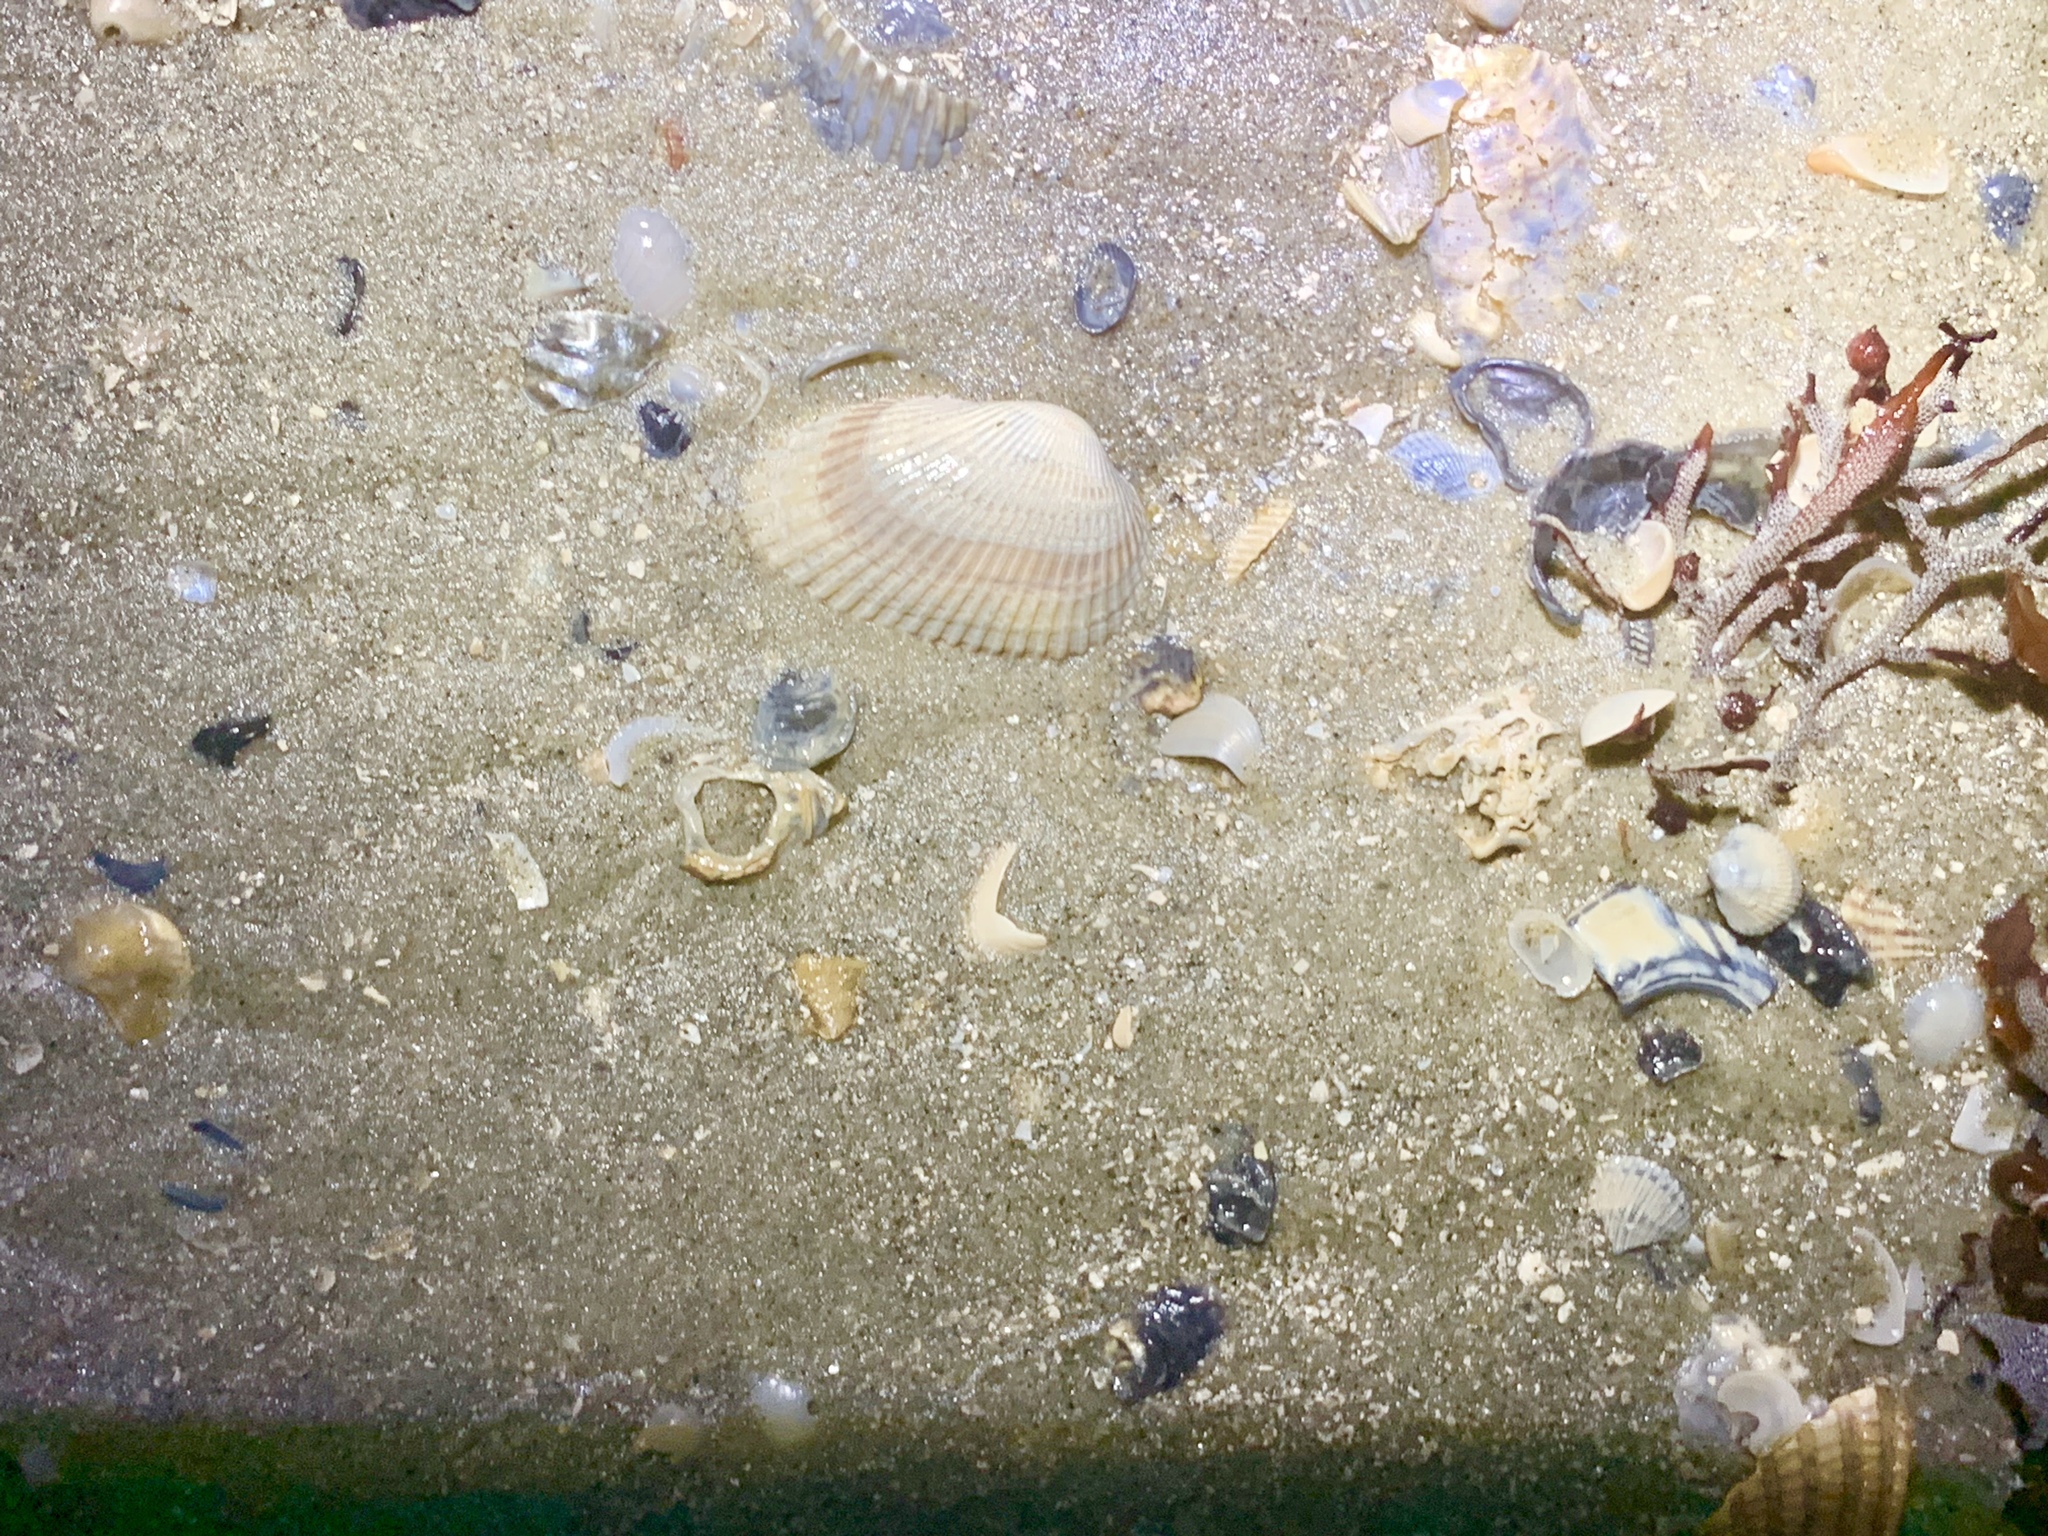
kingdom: Animalia
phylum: Mollusca
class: Bivalvia
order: Arcida
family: Arcidae
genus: Anadara
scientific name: Anadara transversa
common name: Transverse ark
